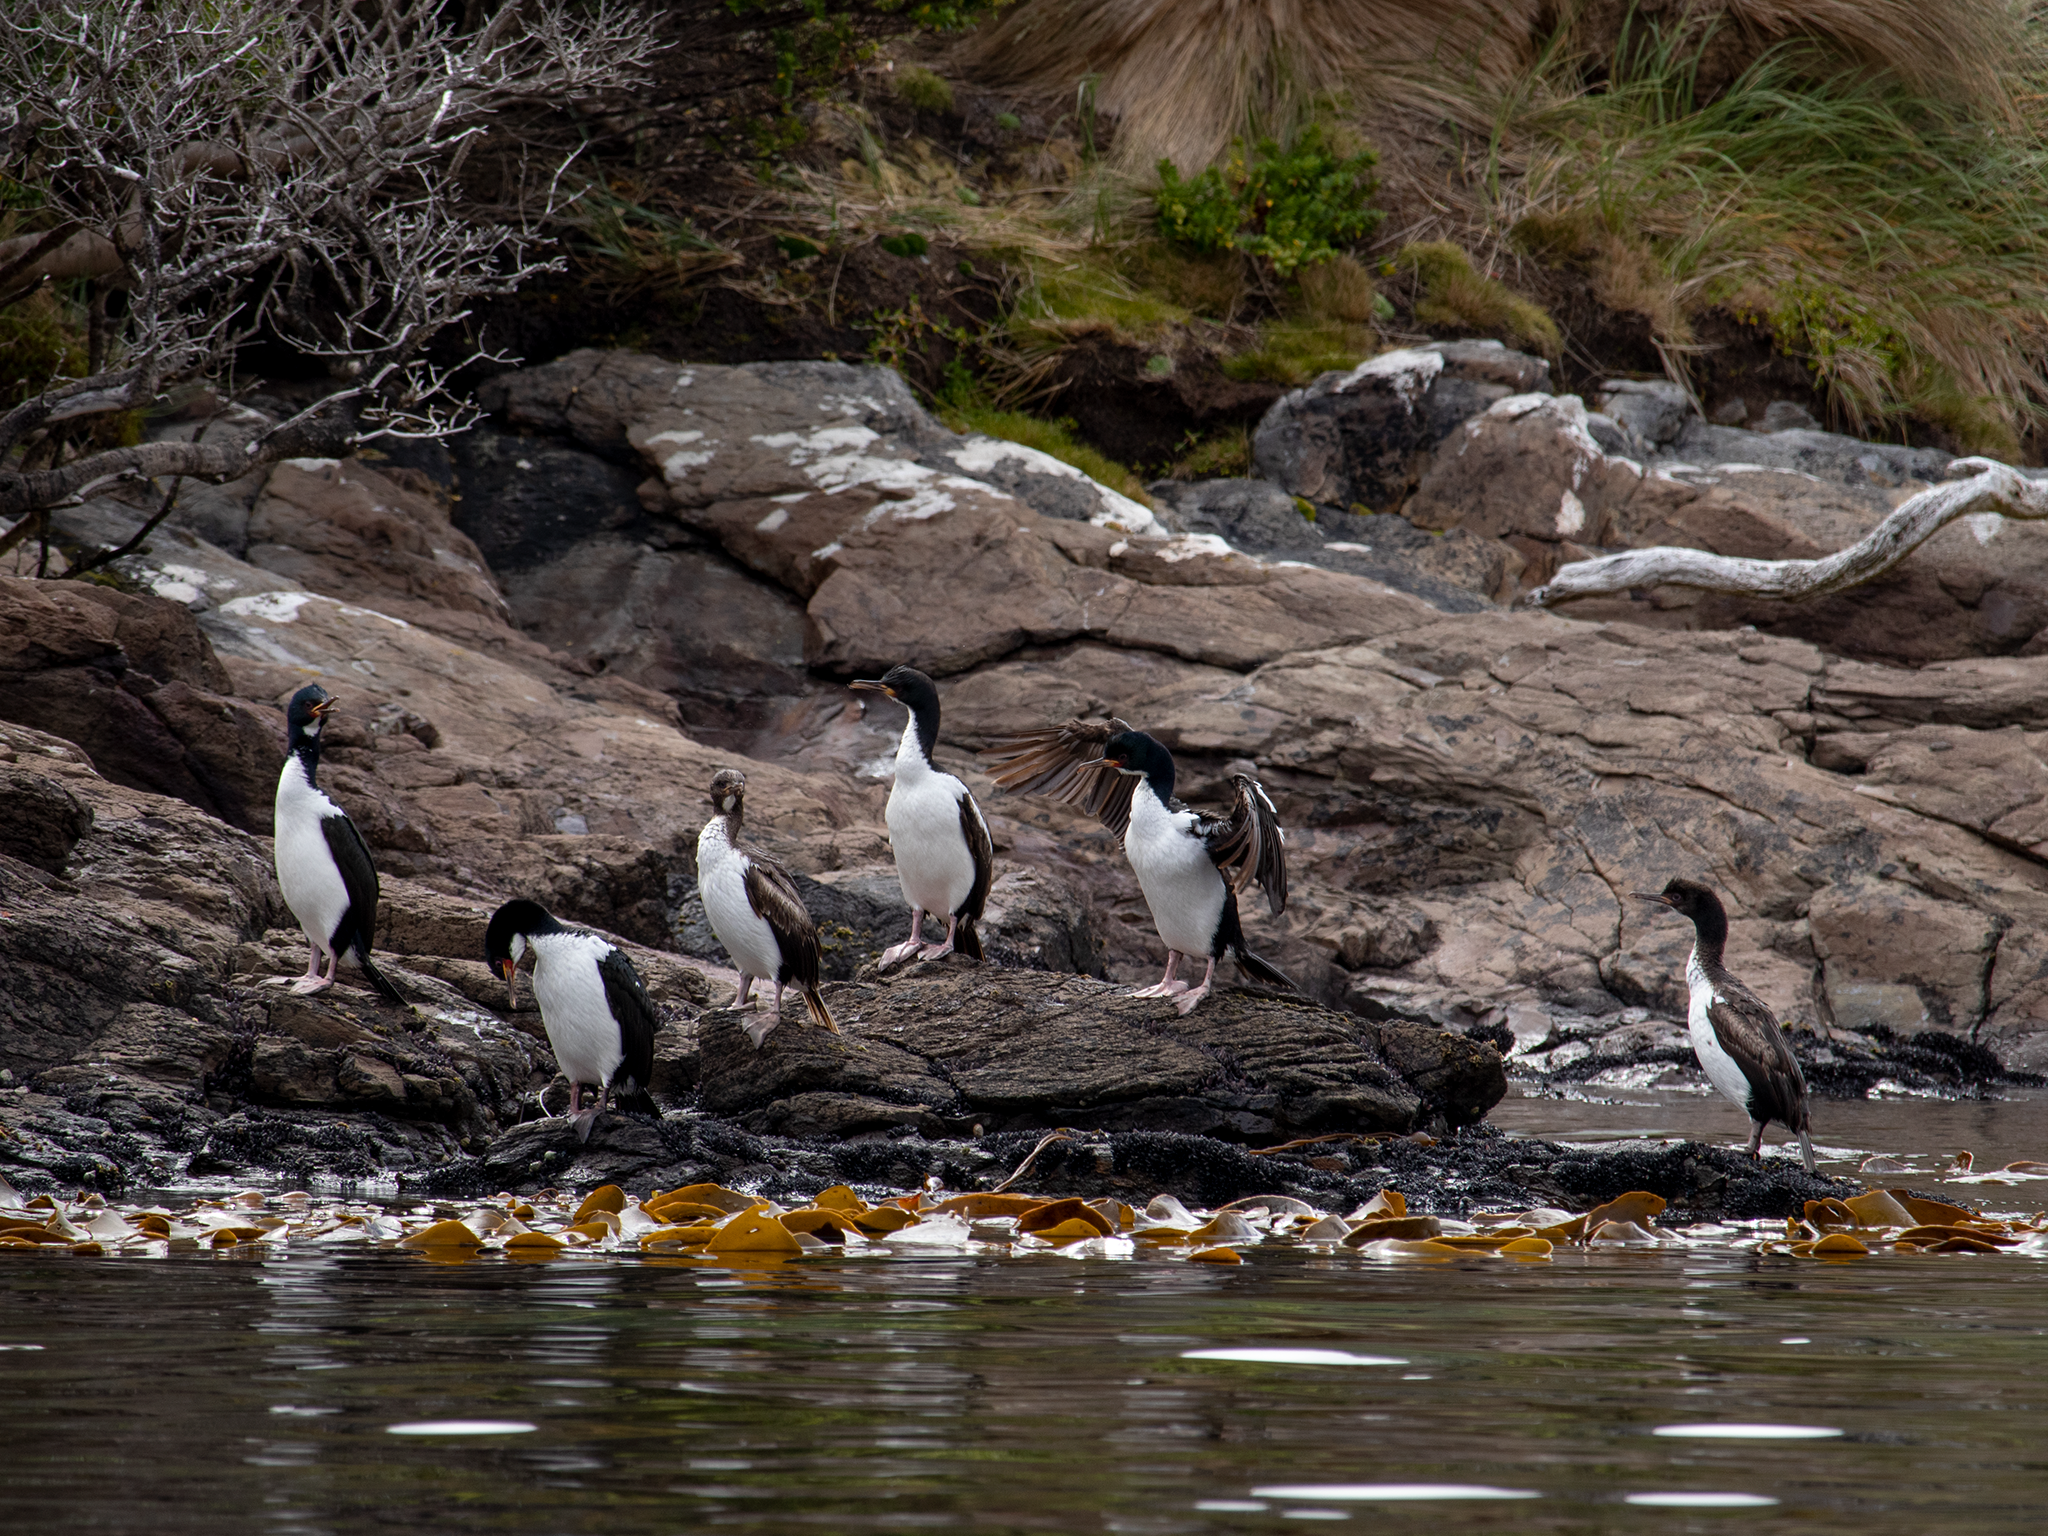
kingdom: Animalia
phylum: Chordata
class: Aves
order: Suliformes
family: Phalacrocoracidae
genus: Leucocarbo
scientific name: Leucocarbo colensoi
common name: Auckland shag
